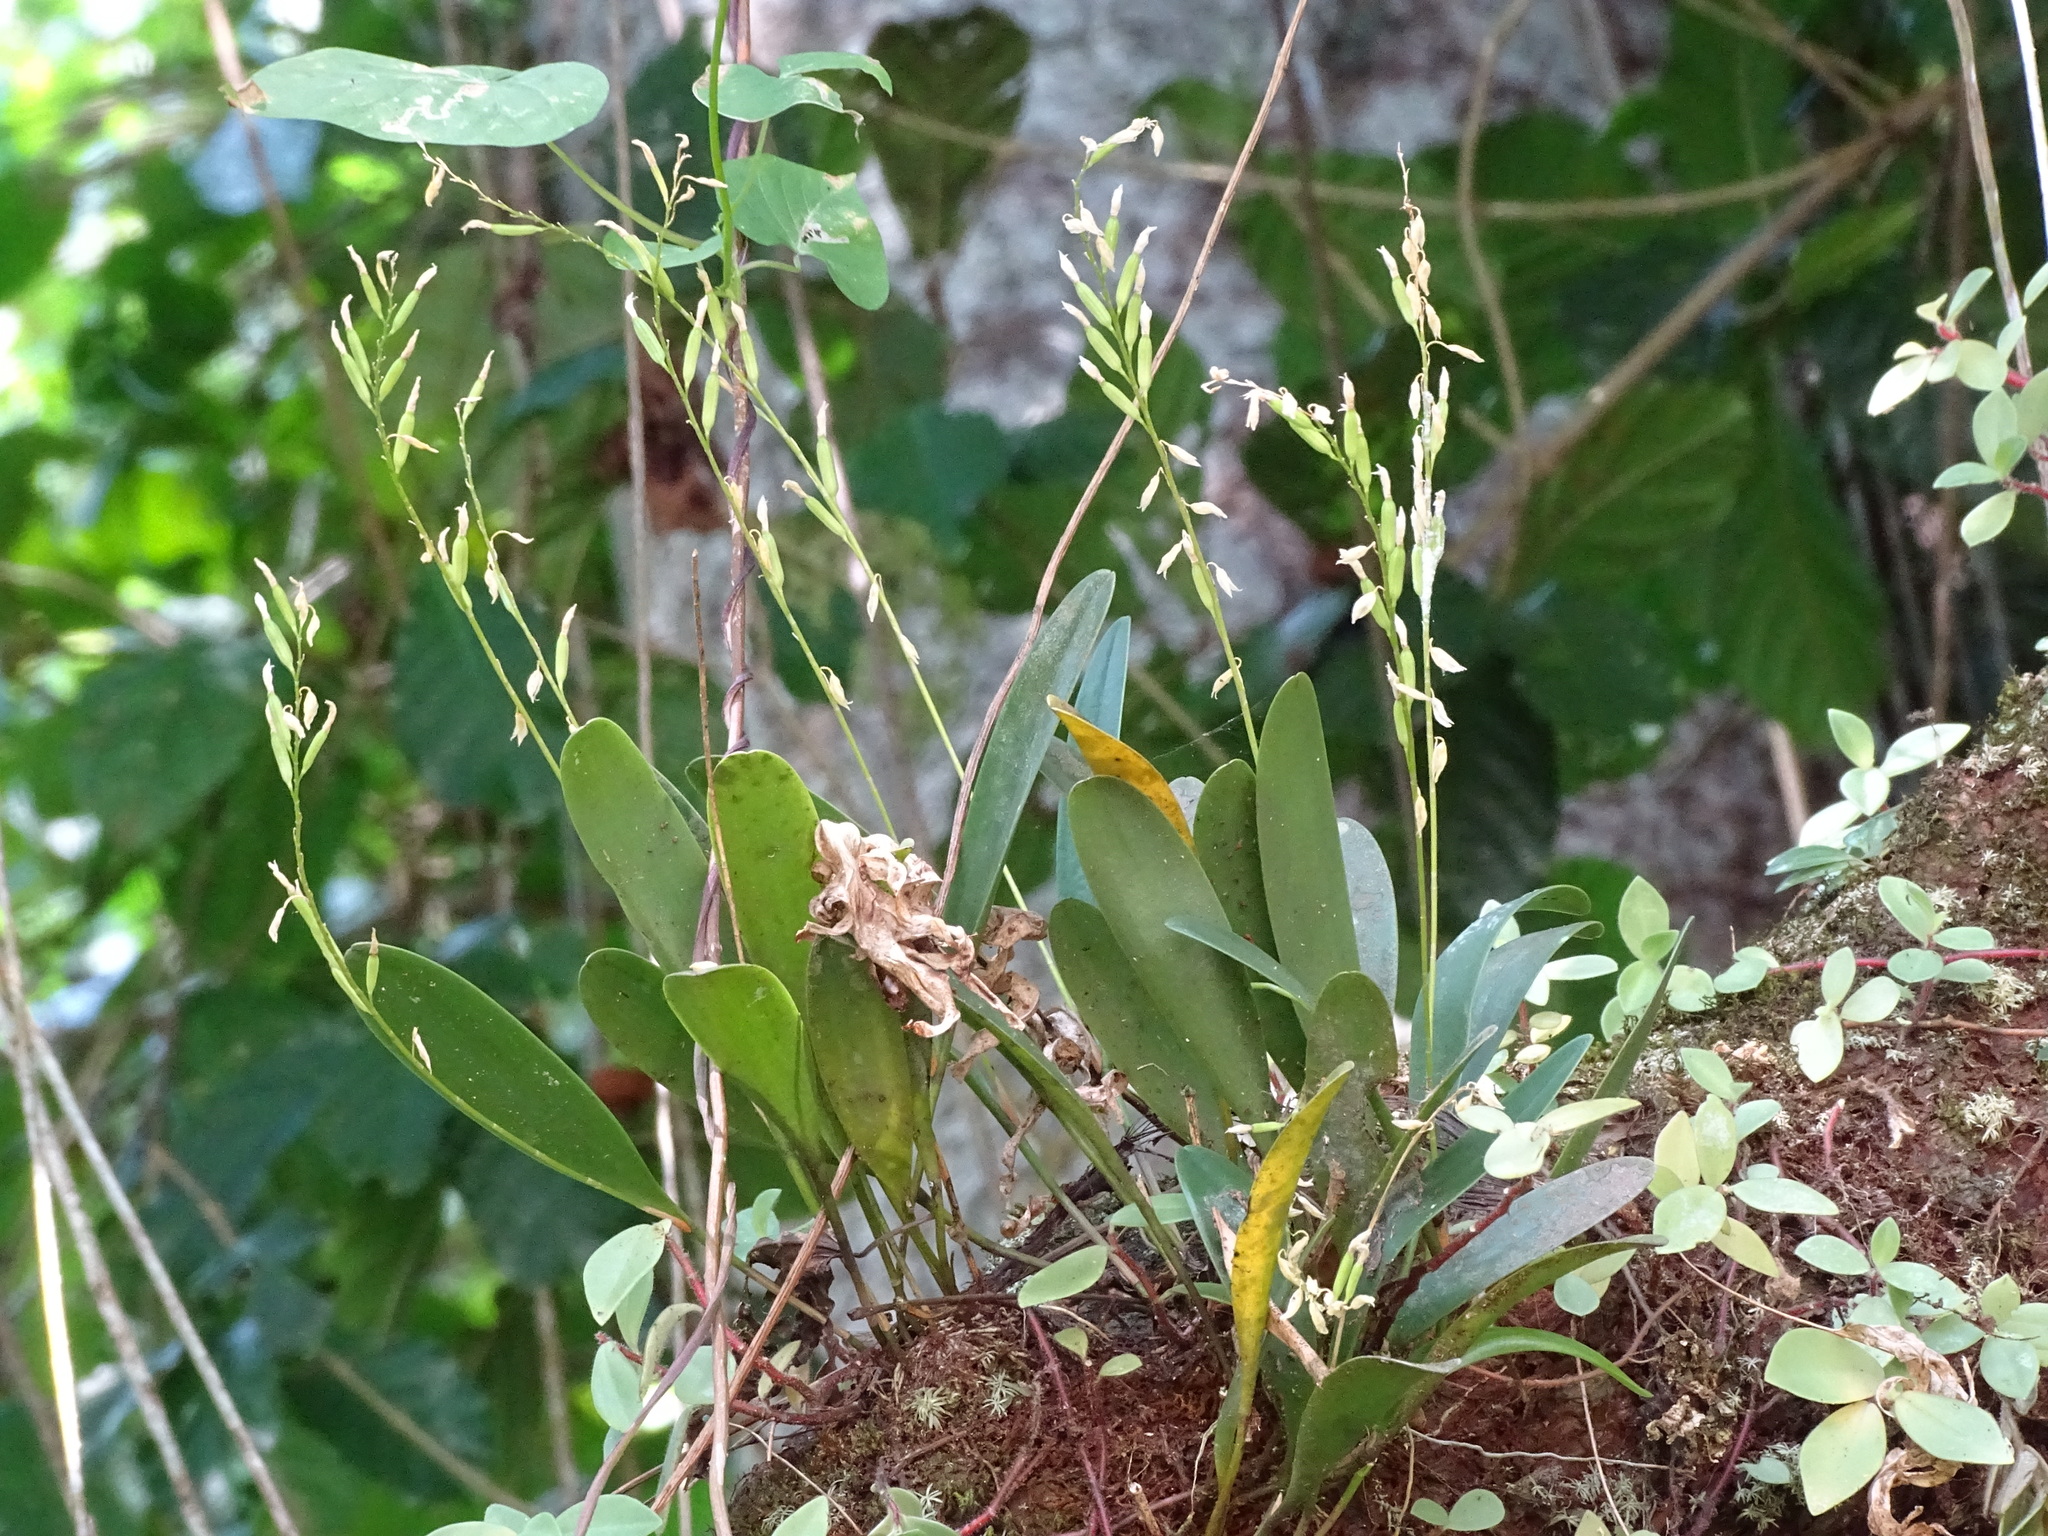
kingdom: Plantae
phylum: Tracheophyta
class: Liliopsida
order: Asparagales
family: Orchidaceae
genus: Pleurothallis
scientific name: Pleurothallis quadrifida
